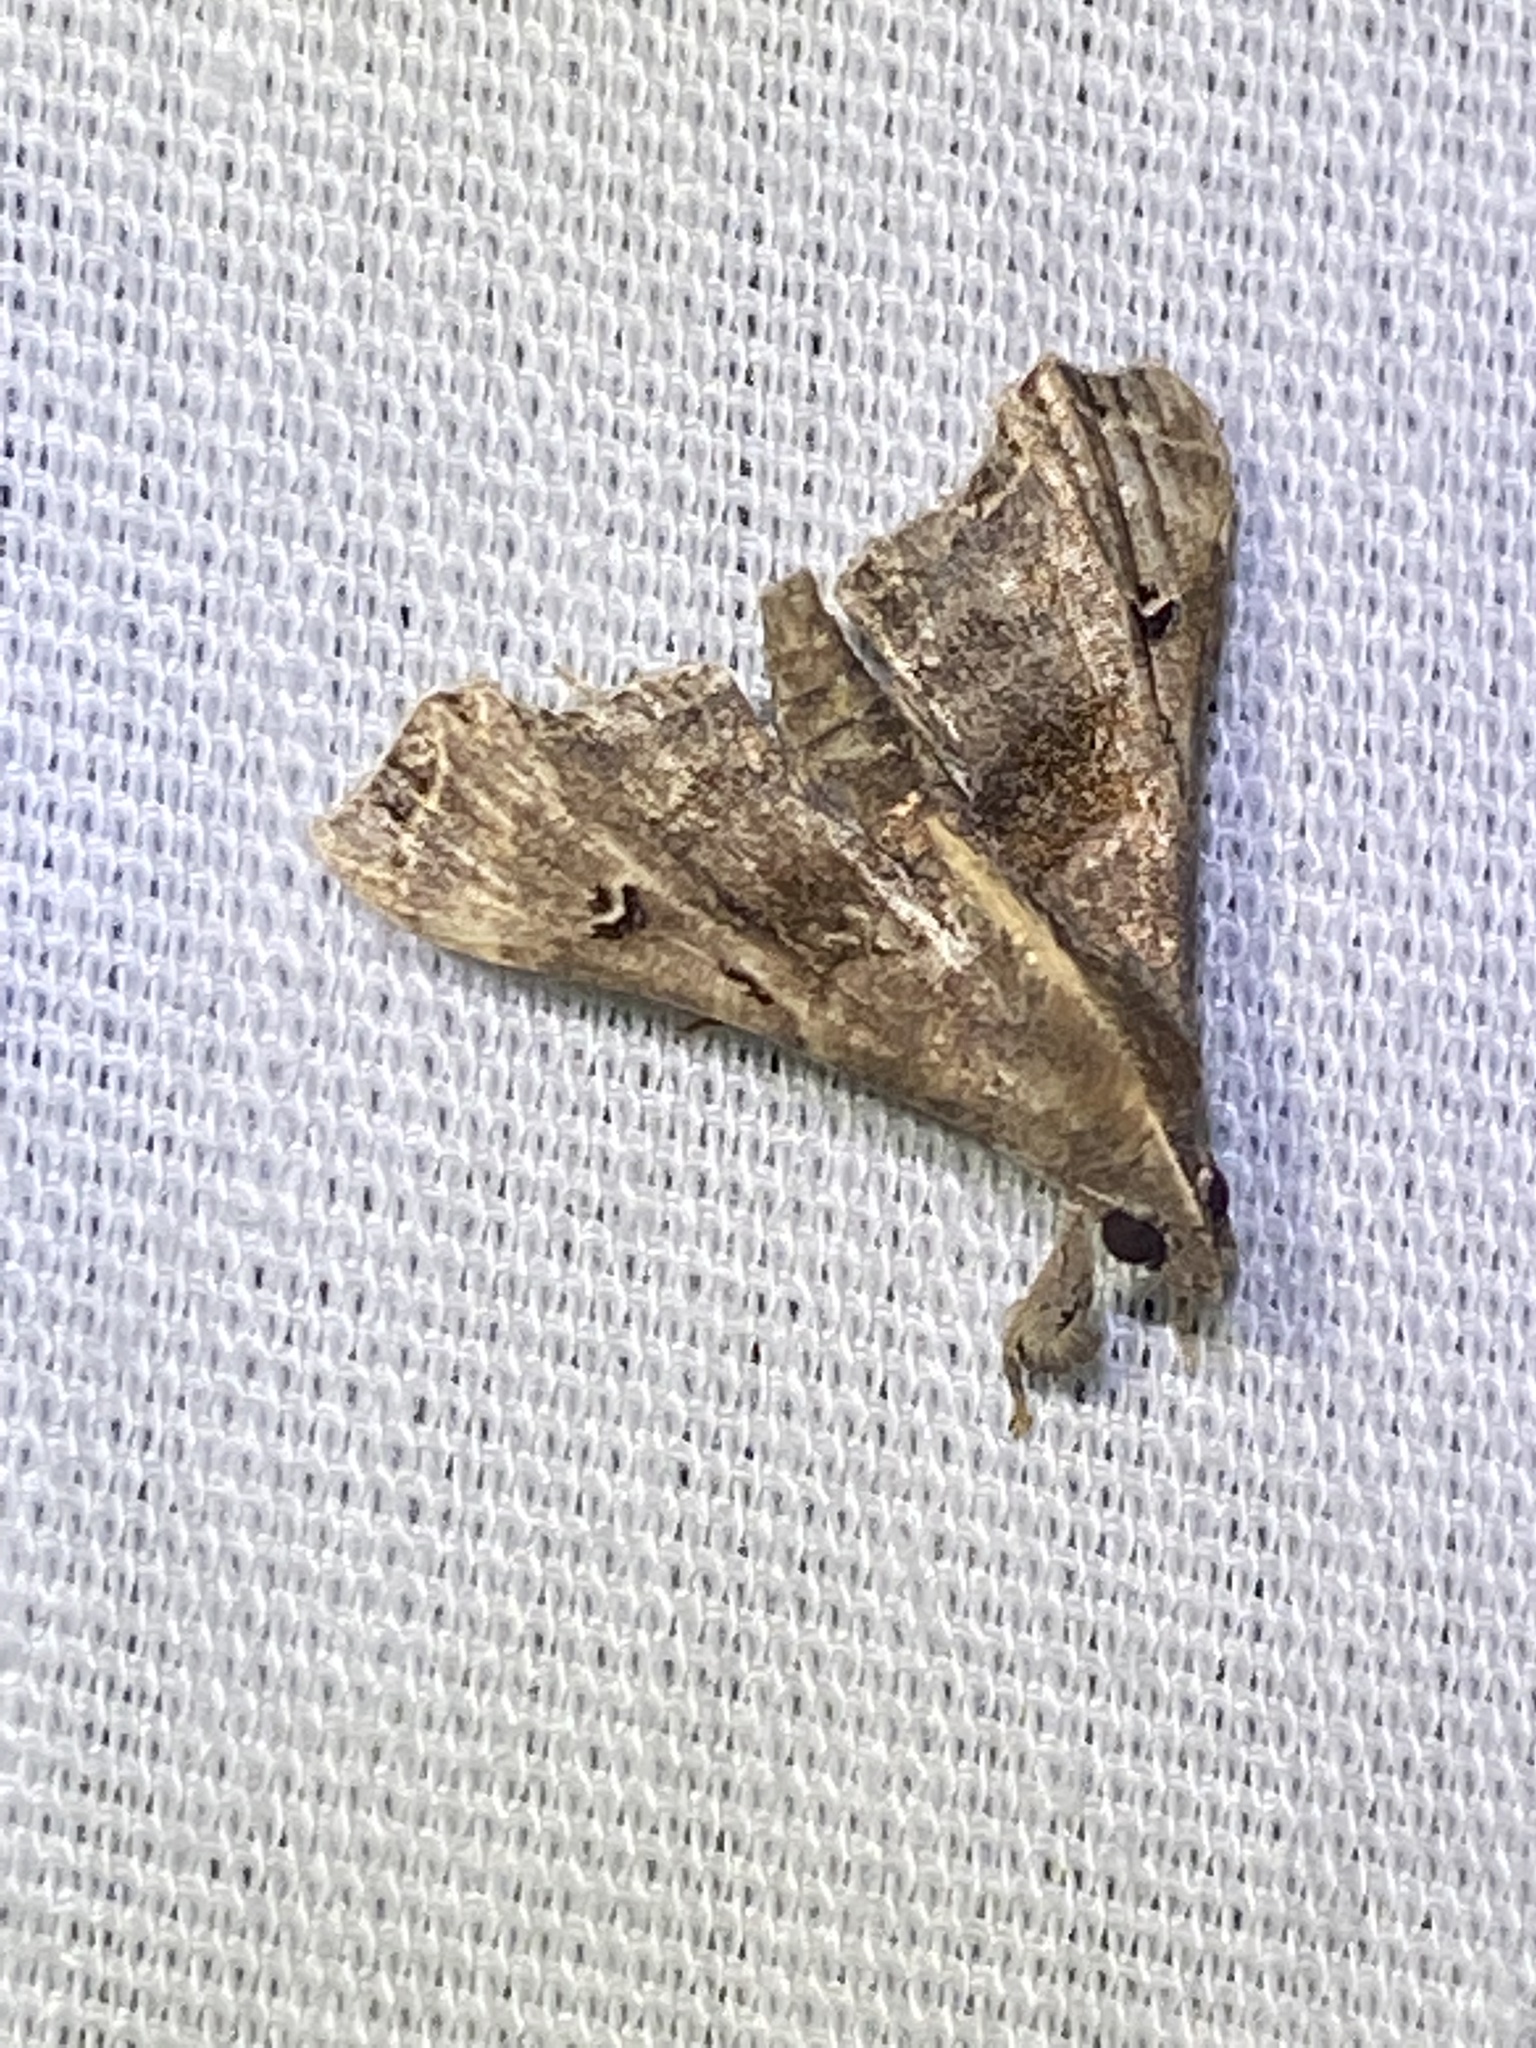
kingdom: Animalia
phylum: Arthropoda
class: Insecta
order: Lepidoptera
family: Erebidae
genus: Palthis
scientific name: Palthis asopialis
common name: Faint-spotted palthis moth
